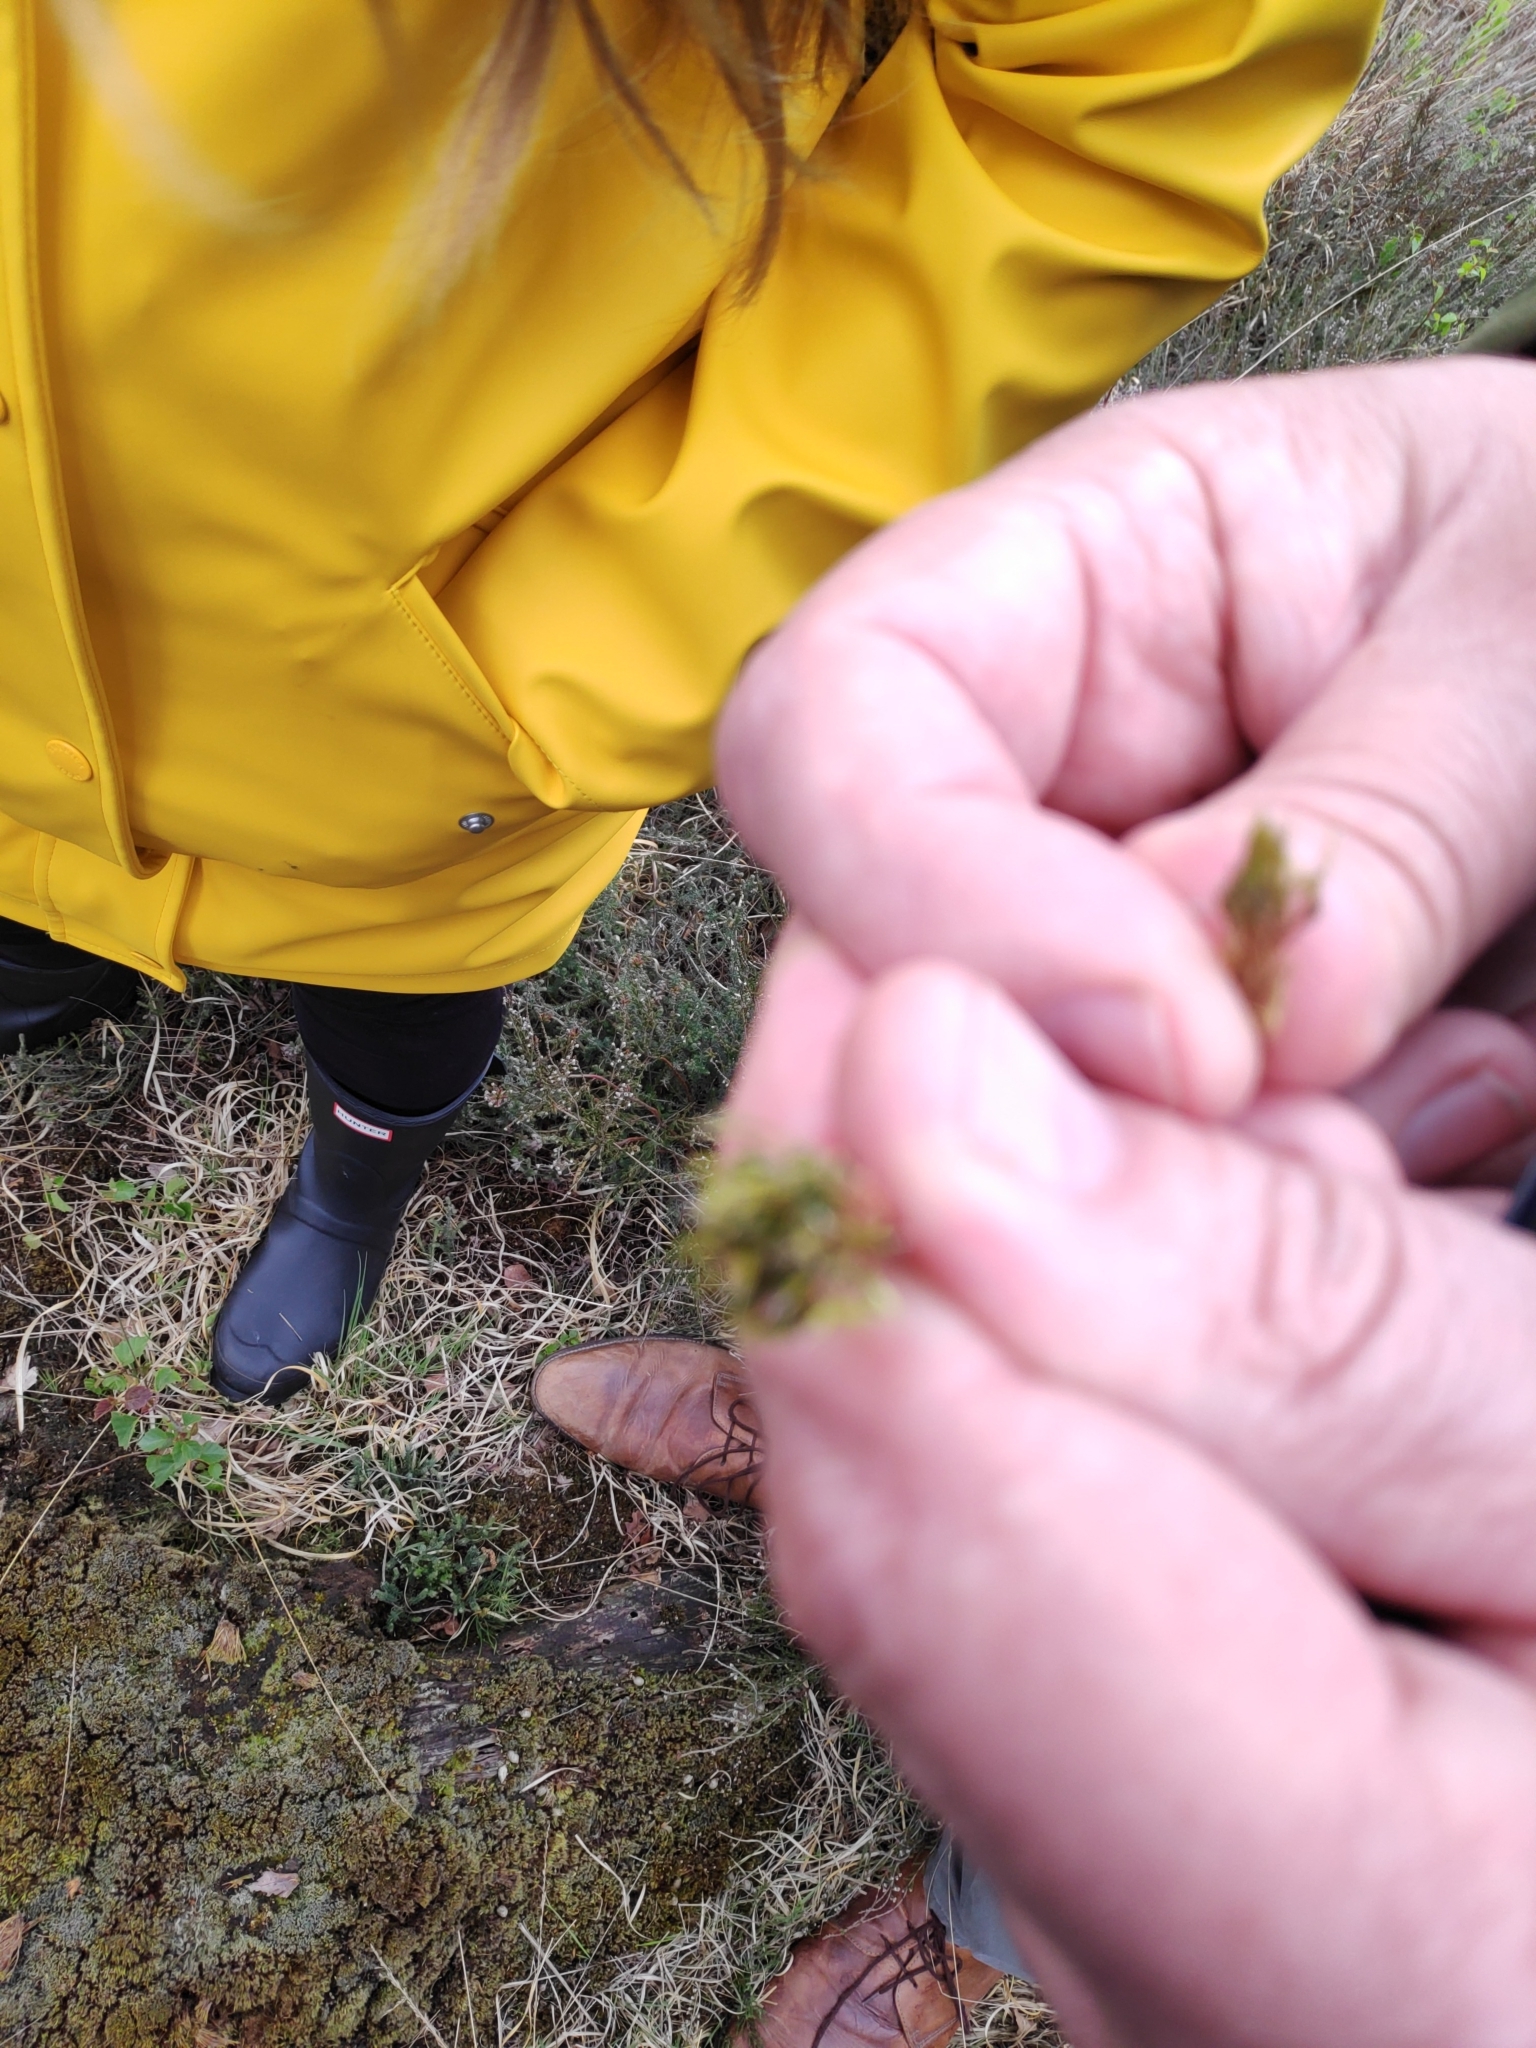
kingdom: Plantae
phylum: Bryophyta
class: Bryopsida
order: Dicranales
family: Leucobryaceae
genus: Campylopus
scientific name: Campylopus introflexus
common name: Heath star moss
